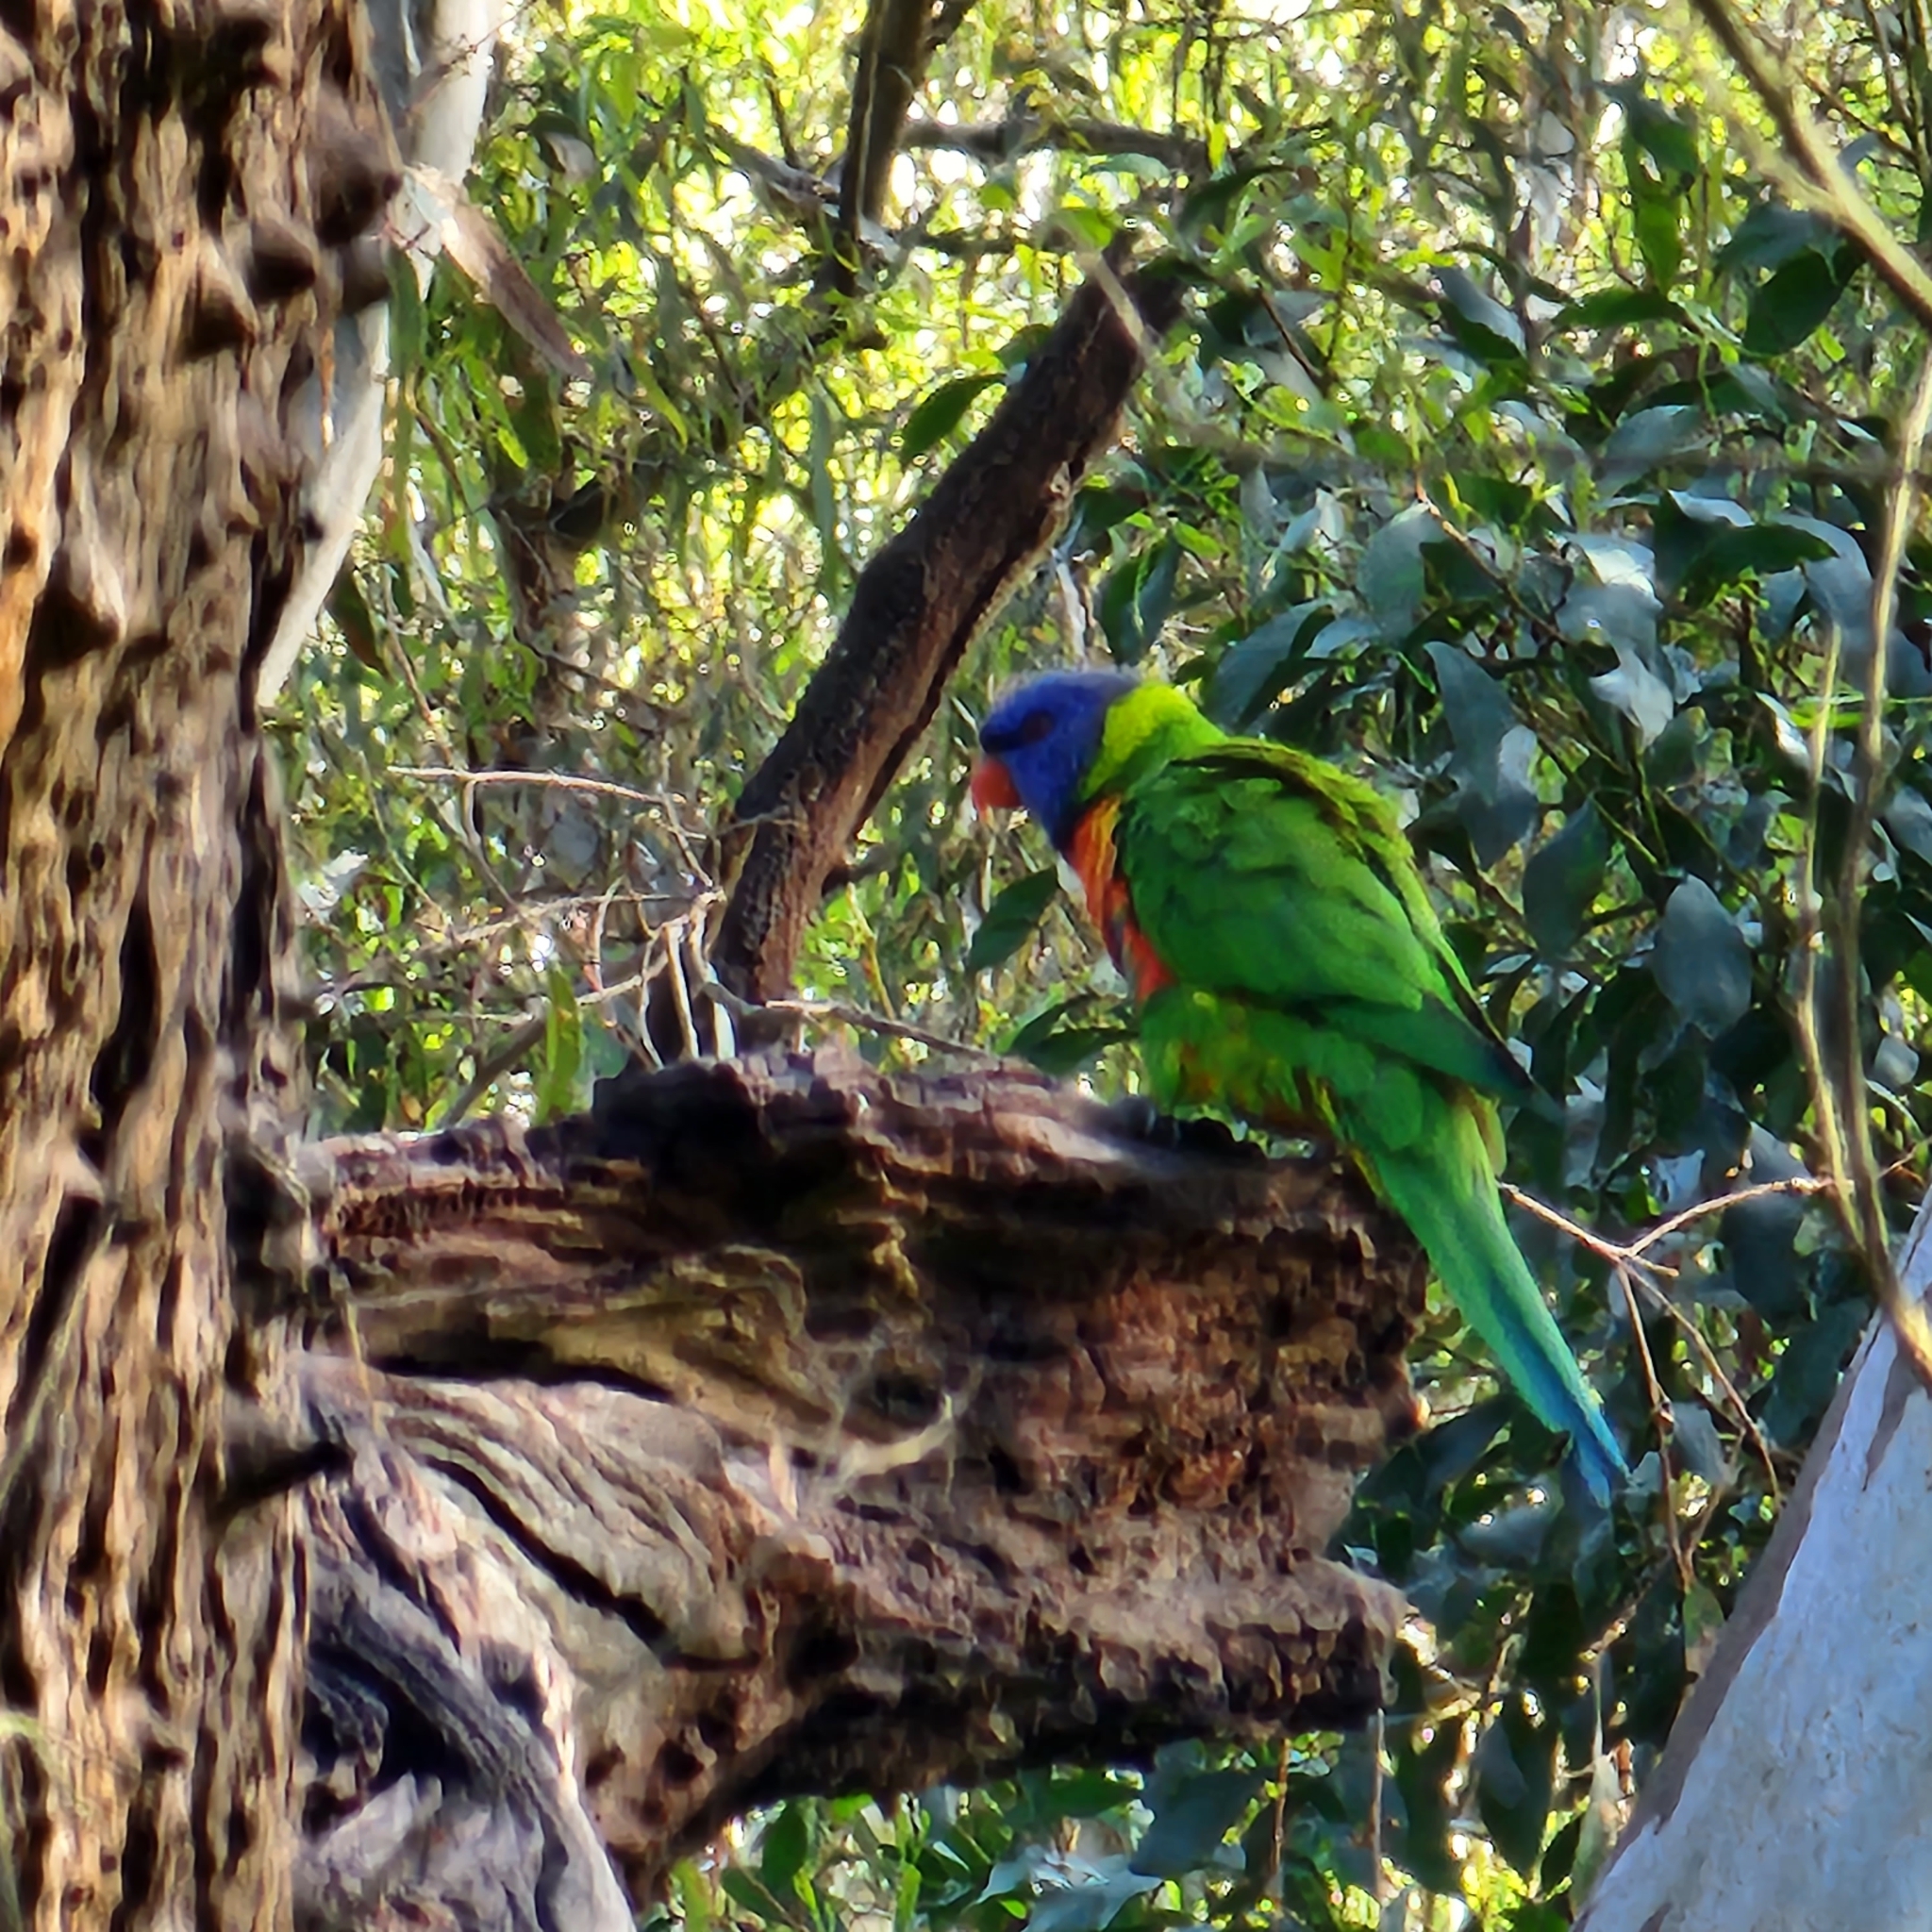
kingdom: Animalia
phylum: Chordata
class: Aves
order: Psittaciformes
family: Psittacidae
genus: Trichoglossus
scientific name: Trichoglossus haematodus
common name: Coconut lorikeet
